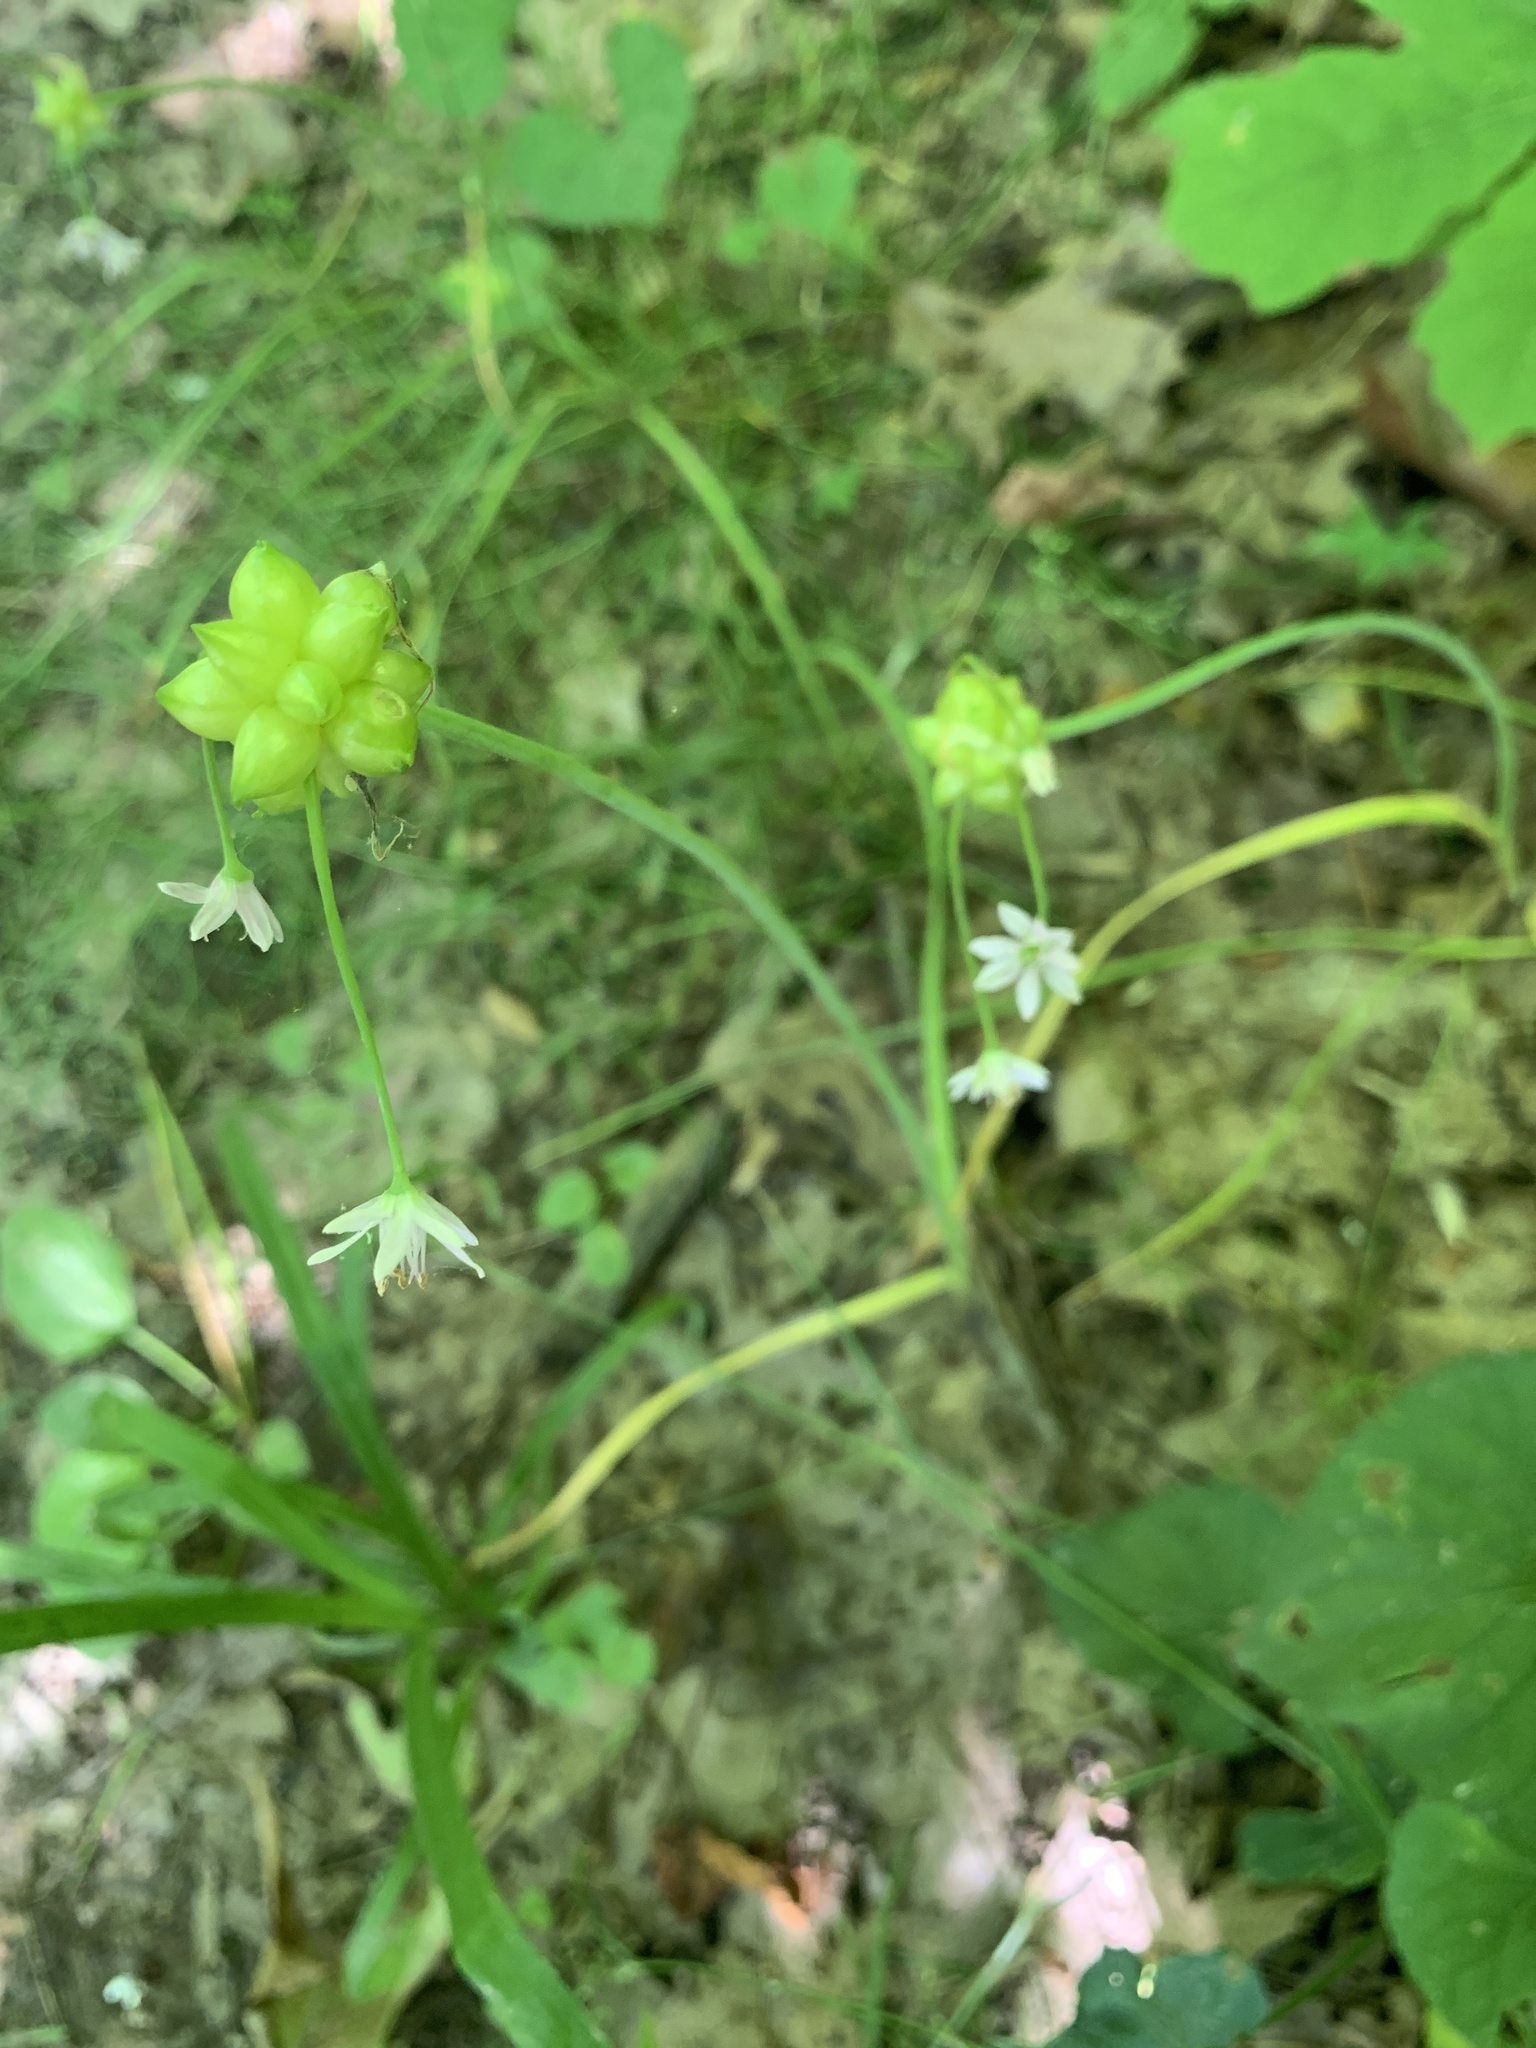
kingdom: Plantae
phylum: Tracheophyta
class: Liliopsida
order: Asparagales
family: Amaryllidaceae
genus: Allium
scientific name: Allium canadense
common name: Meadow garlic
